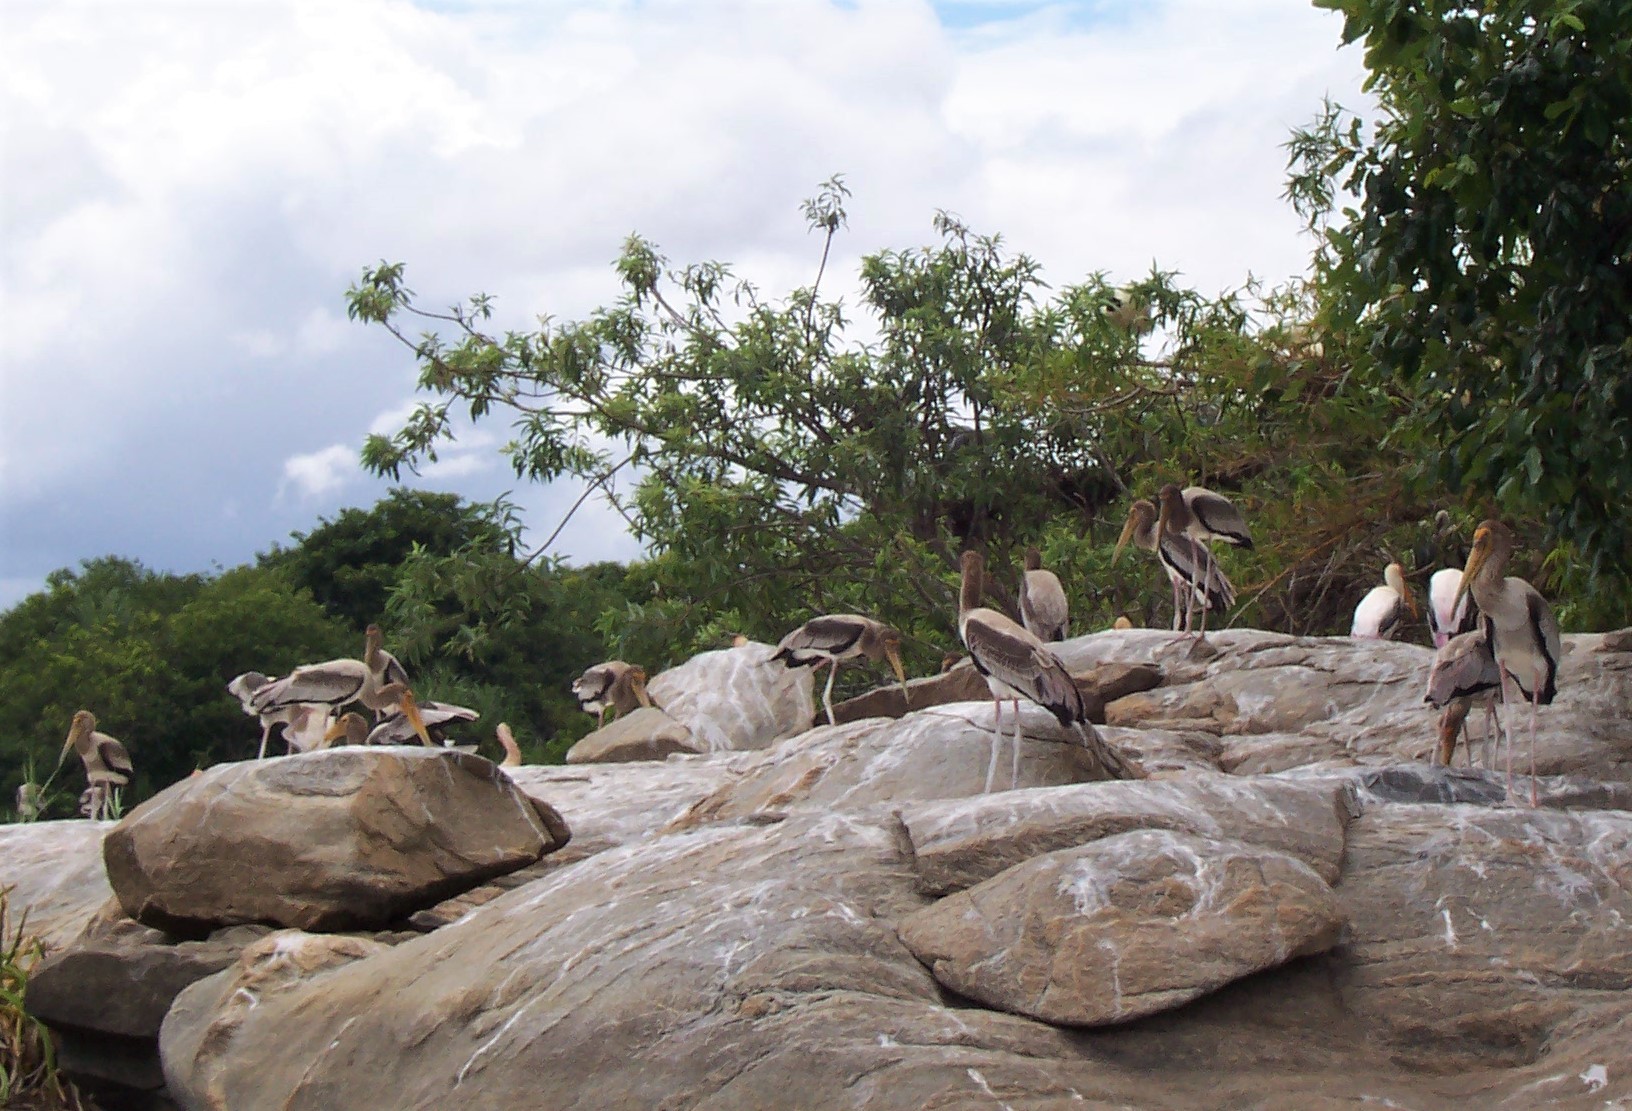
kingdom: Animalia
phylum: Chordata
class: Aves
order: Ciconiiformes
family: Ciconiidae
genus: Mycteria
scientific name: Mycteria leucocephala
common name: Painted stork
